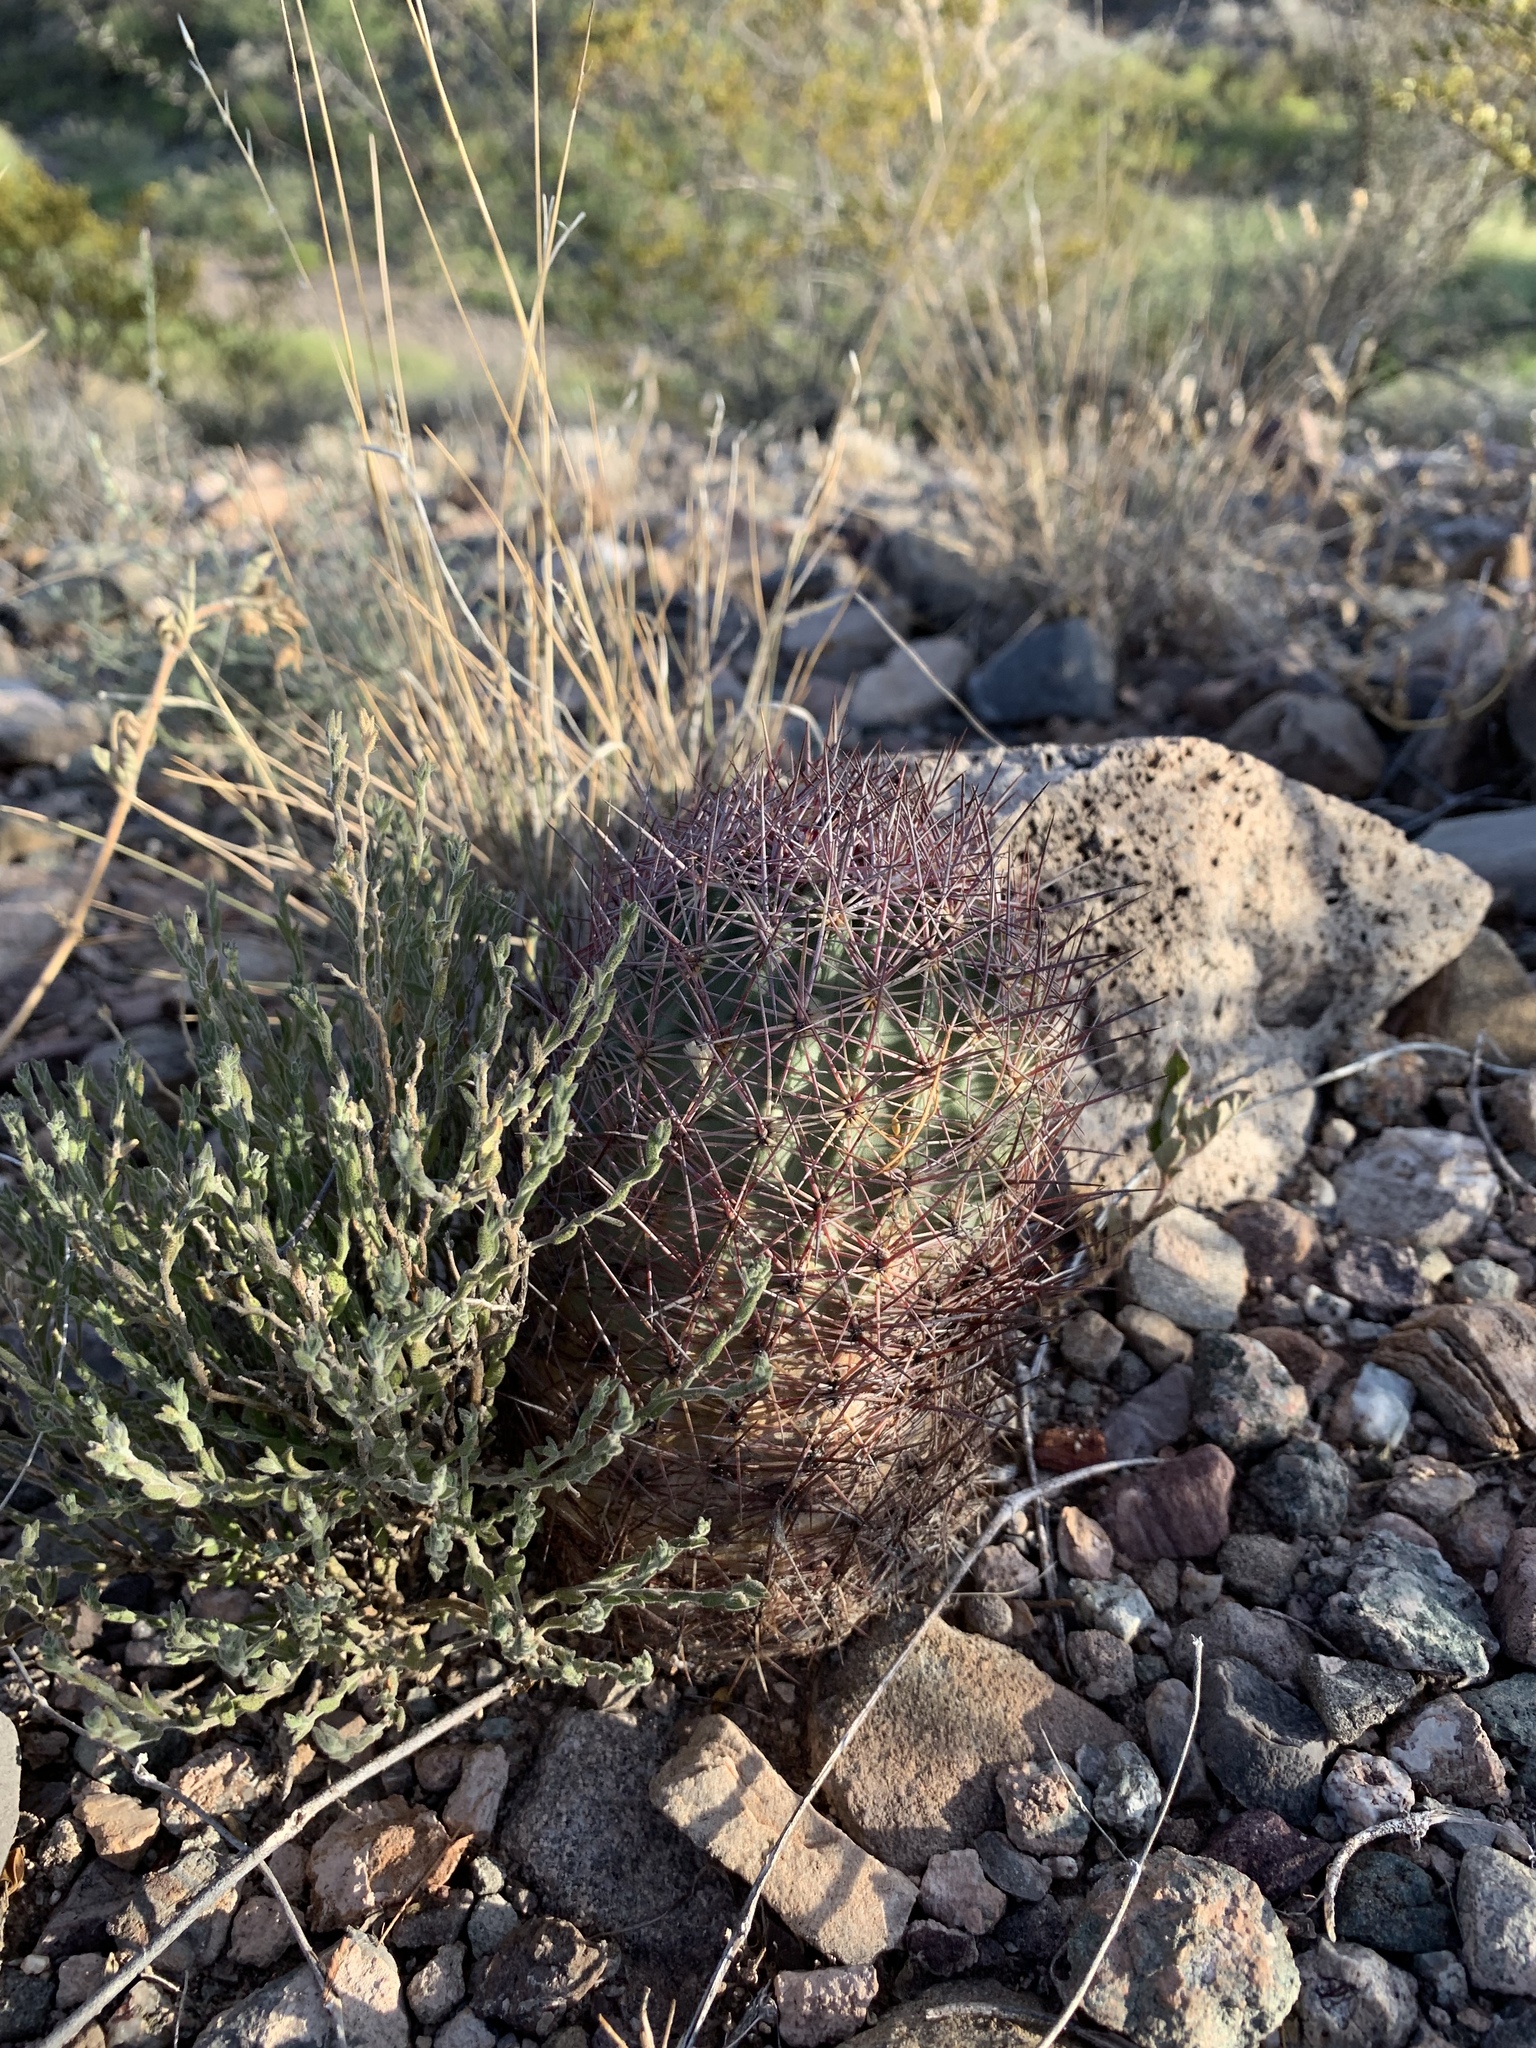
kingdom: Plantae
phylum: Tracheophyta
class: Magnoliopsida
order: Caryophyllales
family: Cactaceae
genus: Sclerocactus
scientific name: Sclerocactus johnsonii
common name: Eight-spine fishhook cactus
